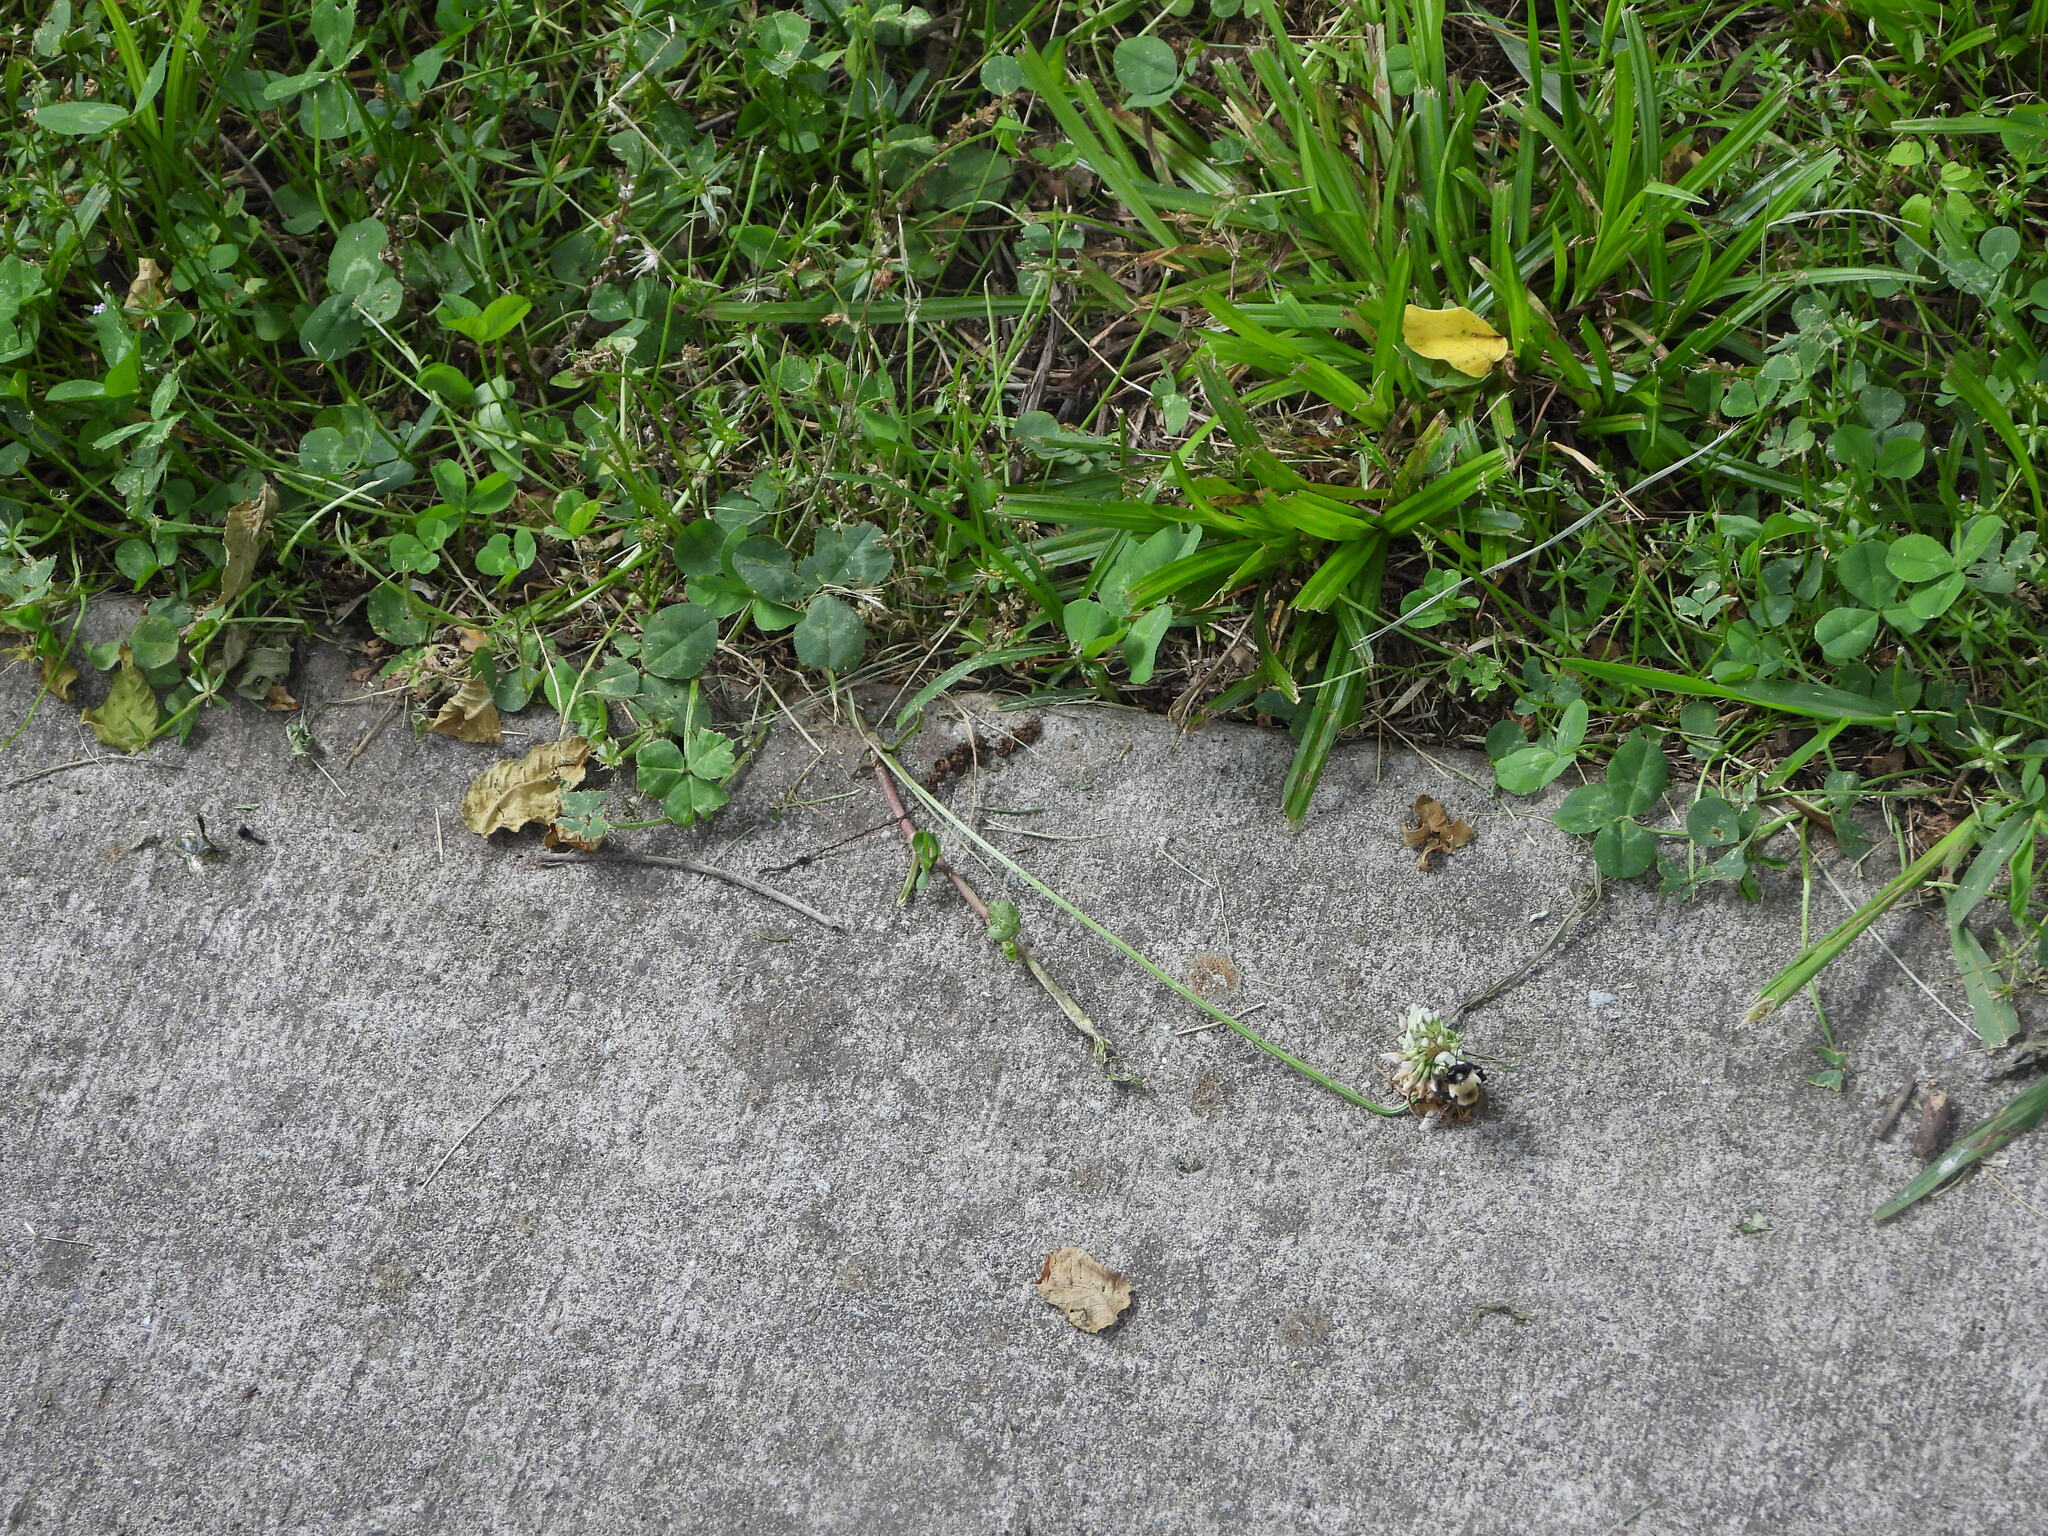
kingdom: Plantae
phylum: Tracheophyta
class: Magnoliopsida
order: Fabales
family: Fabaceae
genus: Trifolium
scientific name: Trifolium repens
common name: White clover
